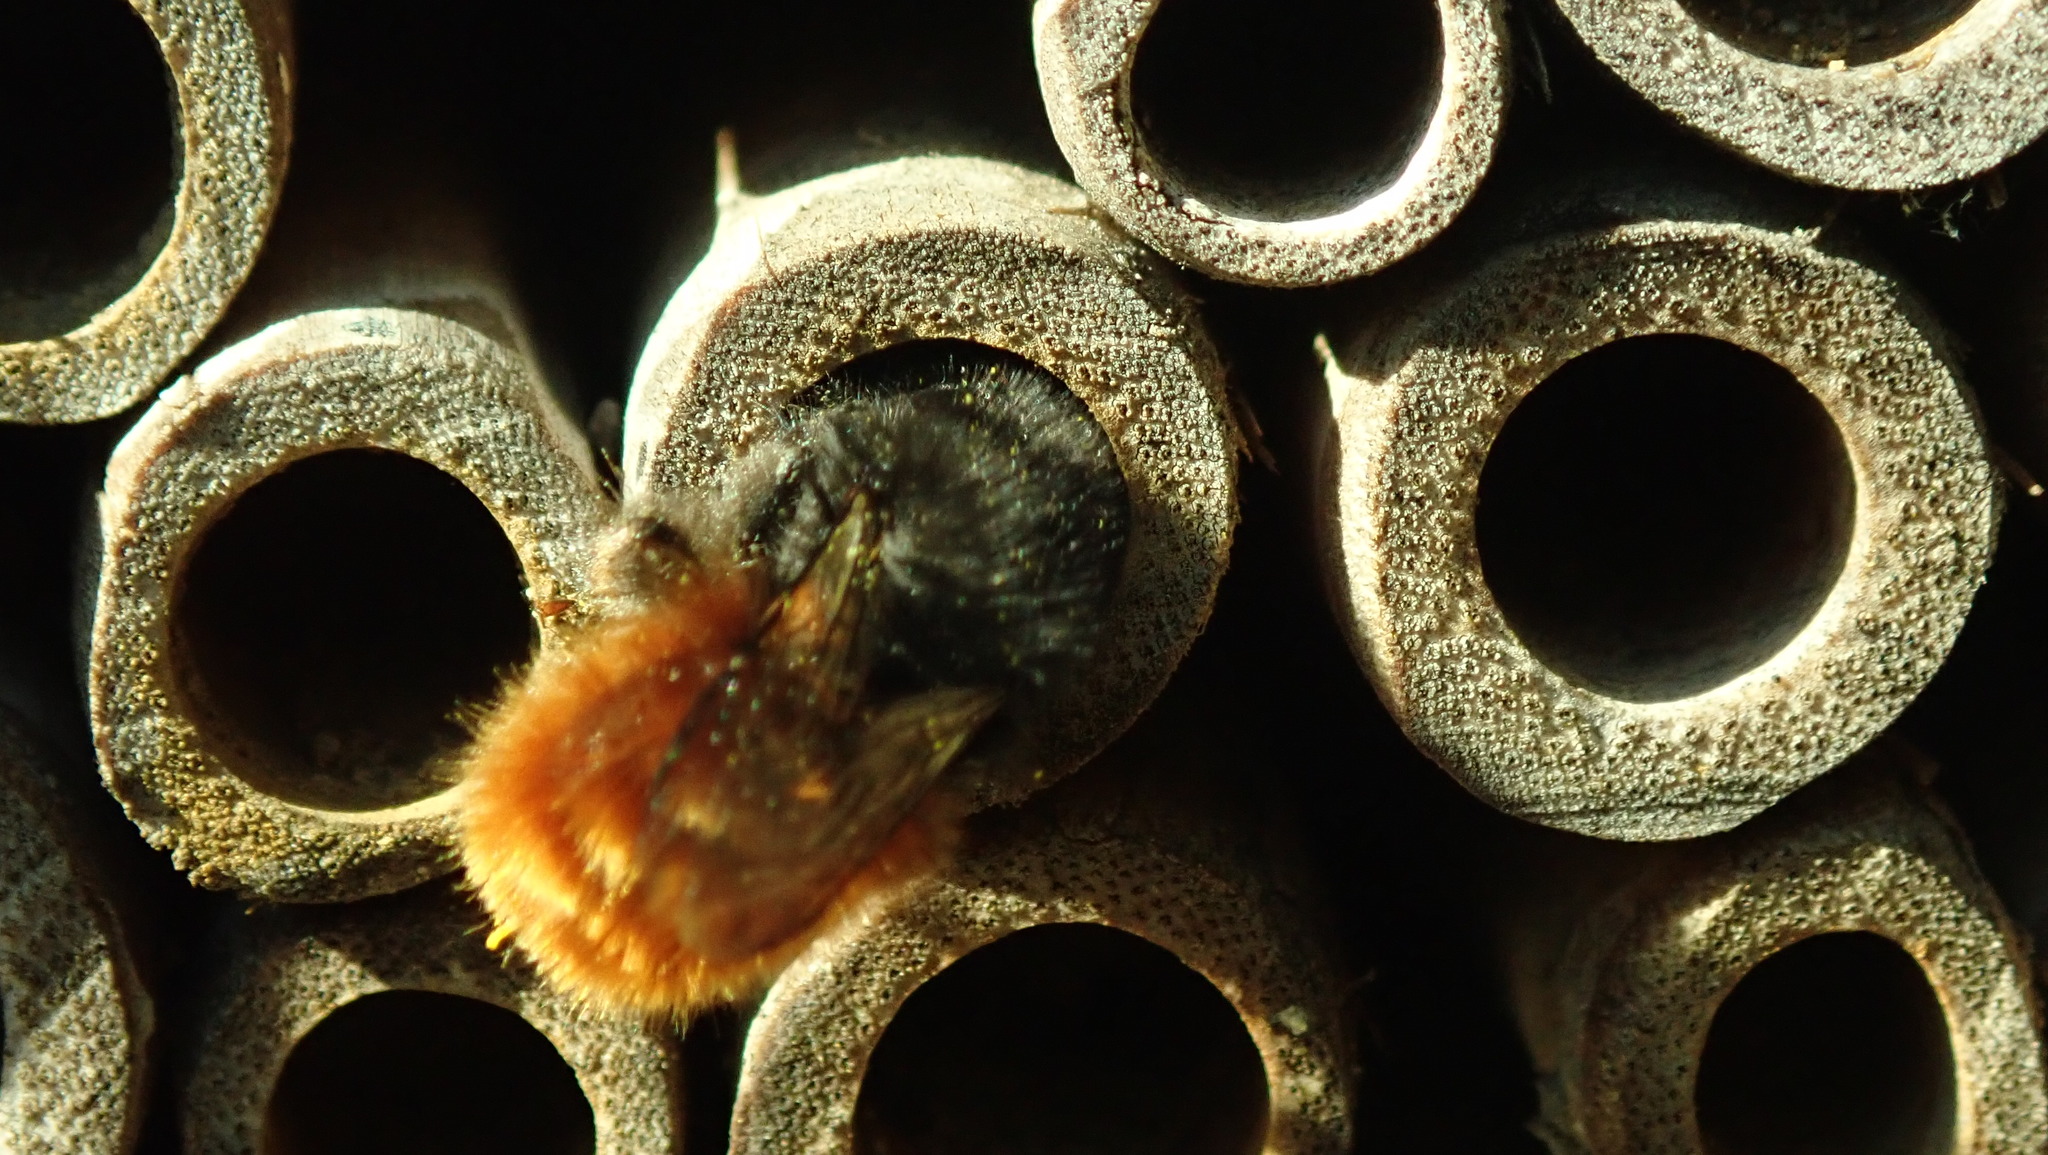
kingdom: Animalia
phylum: Arthropoda
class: Insecta
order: Hymenoptera
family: Megachilidae
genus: Osmia
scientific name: Osmia cornuta
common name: Mason bee
